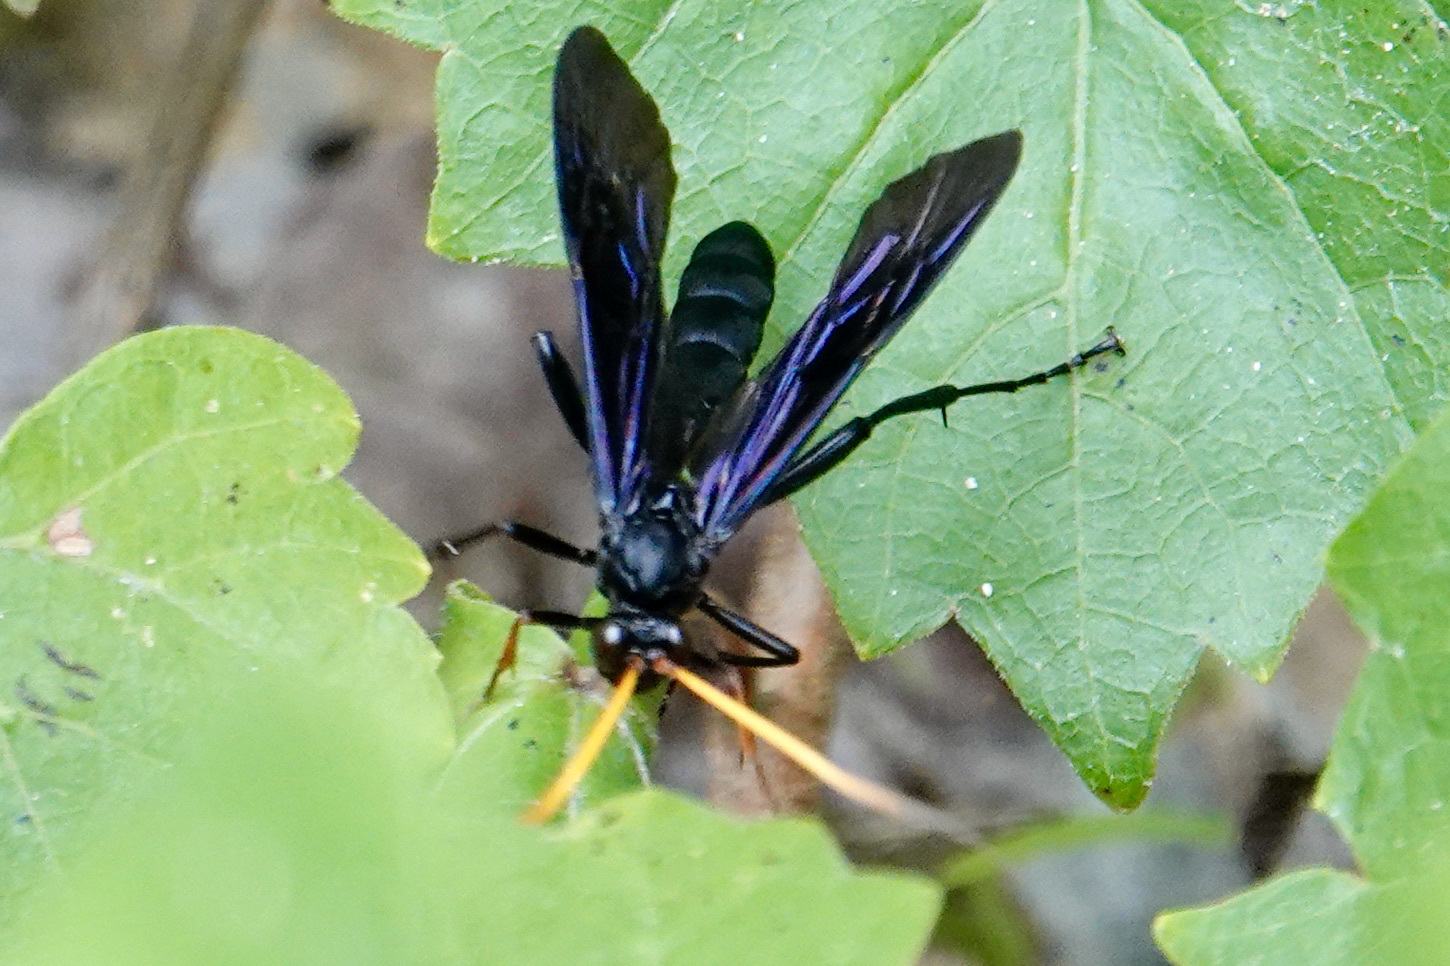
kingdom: Animalia
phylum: Arthropoda
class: Insecta
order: Hymenoptera
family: Ichneumonidae
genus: Gnamptopelta
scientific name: Gnamptopelta obsidianator
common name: Bent-shielded besieger wasp
